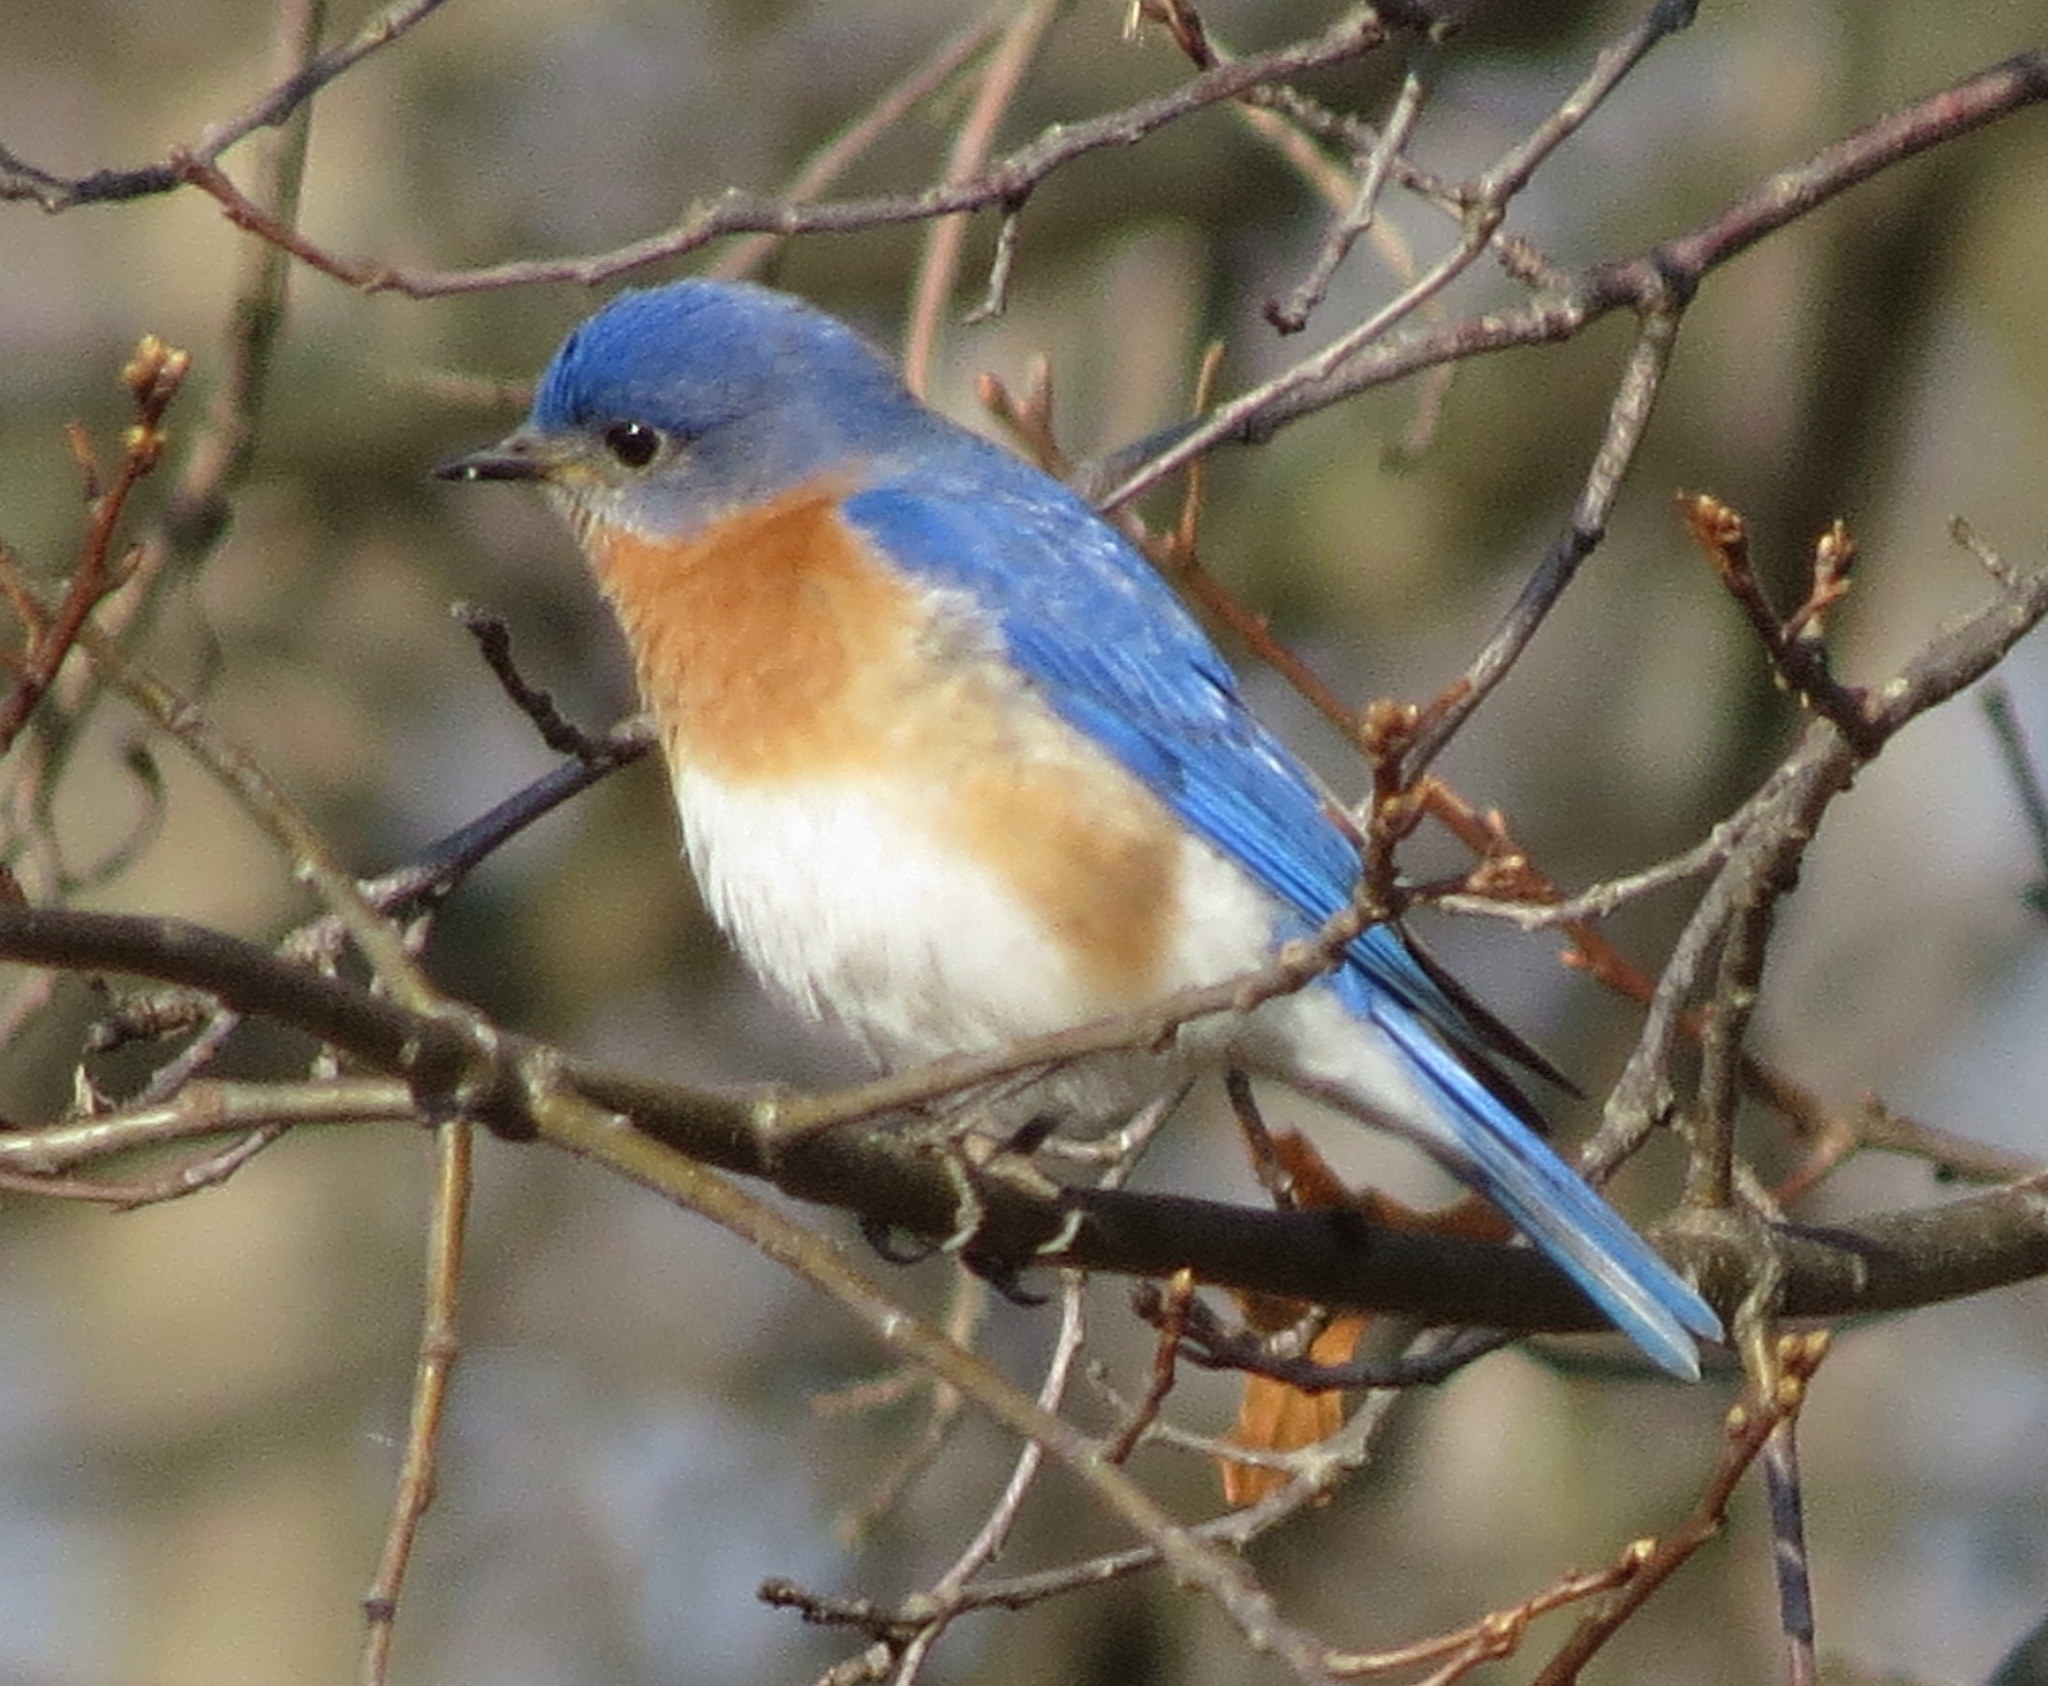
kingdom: Animalia
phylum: Chordata
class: Aves
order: Passeriformes
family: Turdidae
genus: Sialia
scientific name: Sialia sialis
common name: Eastern bluebird
